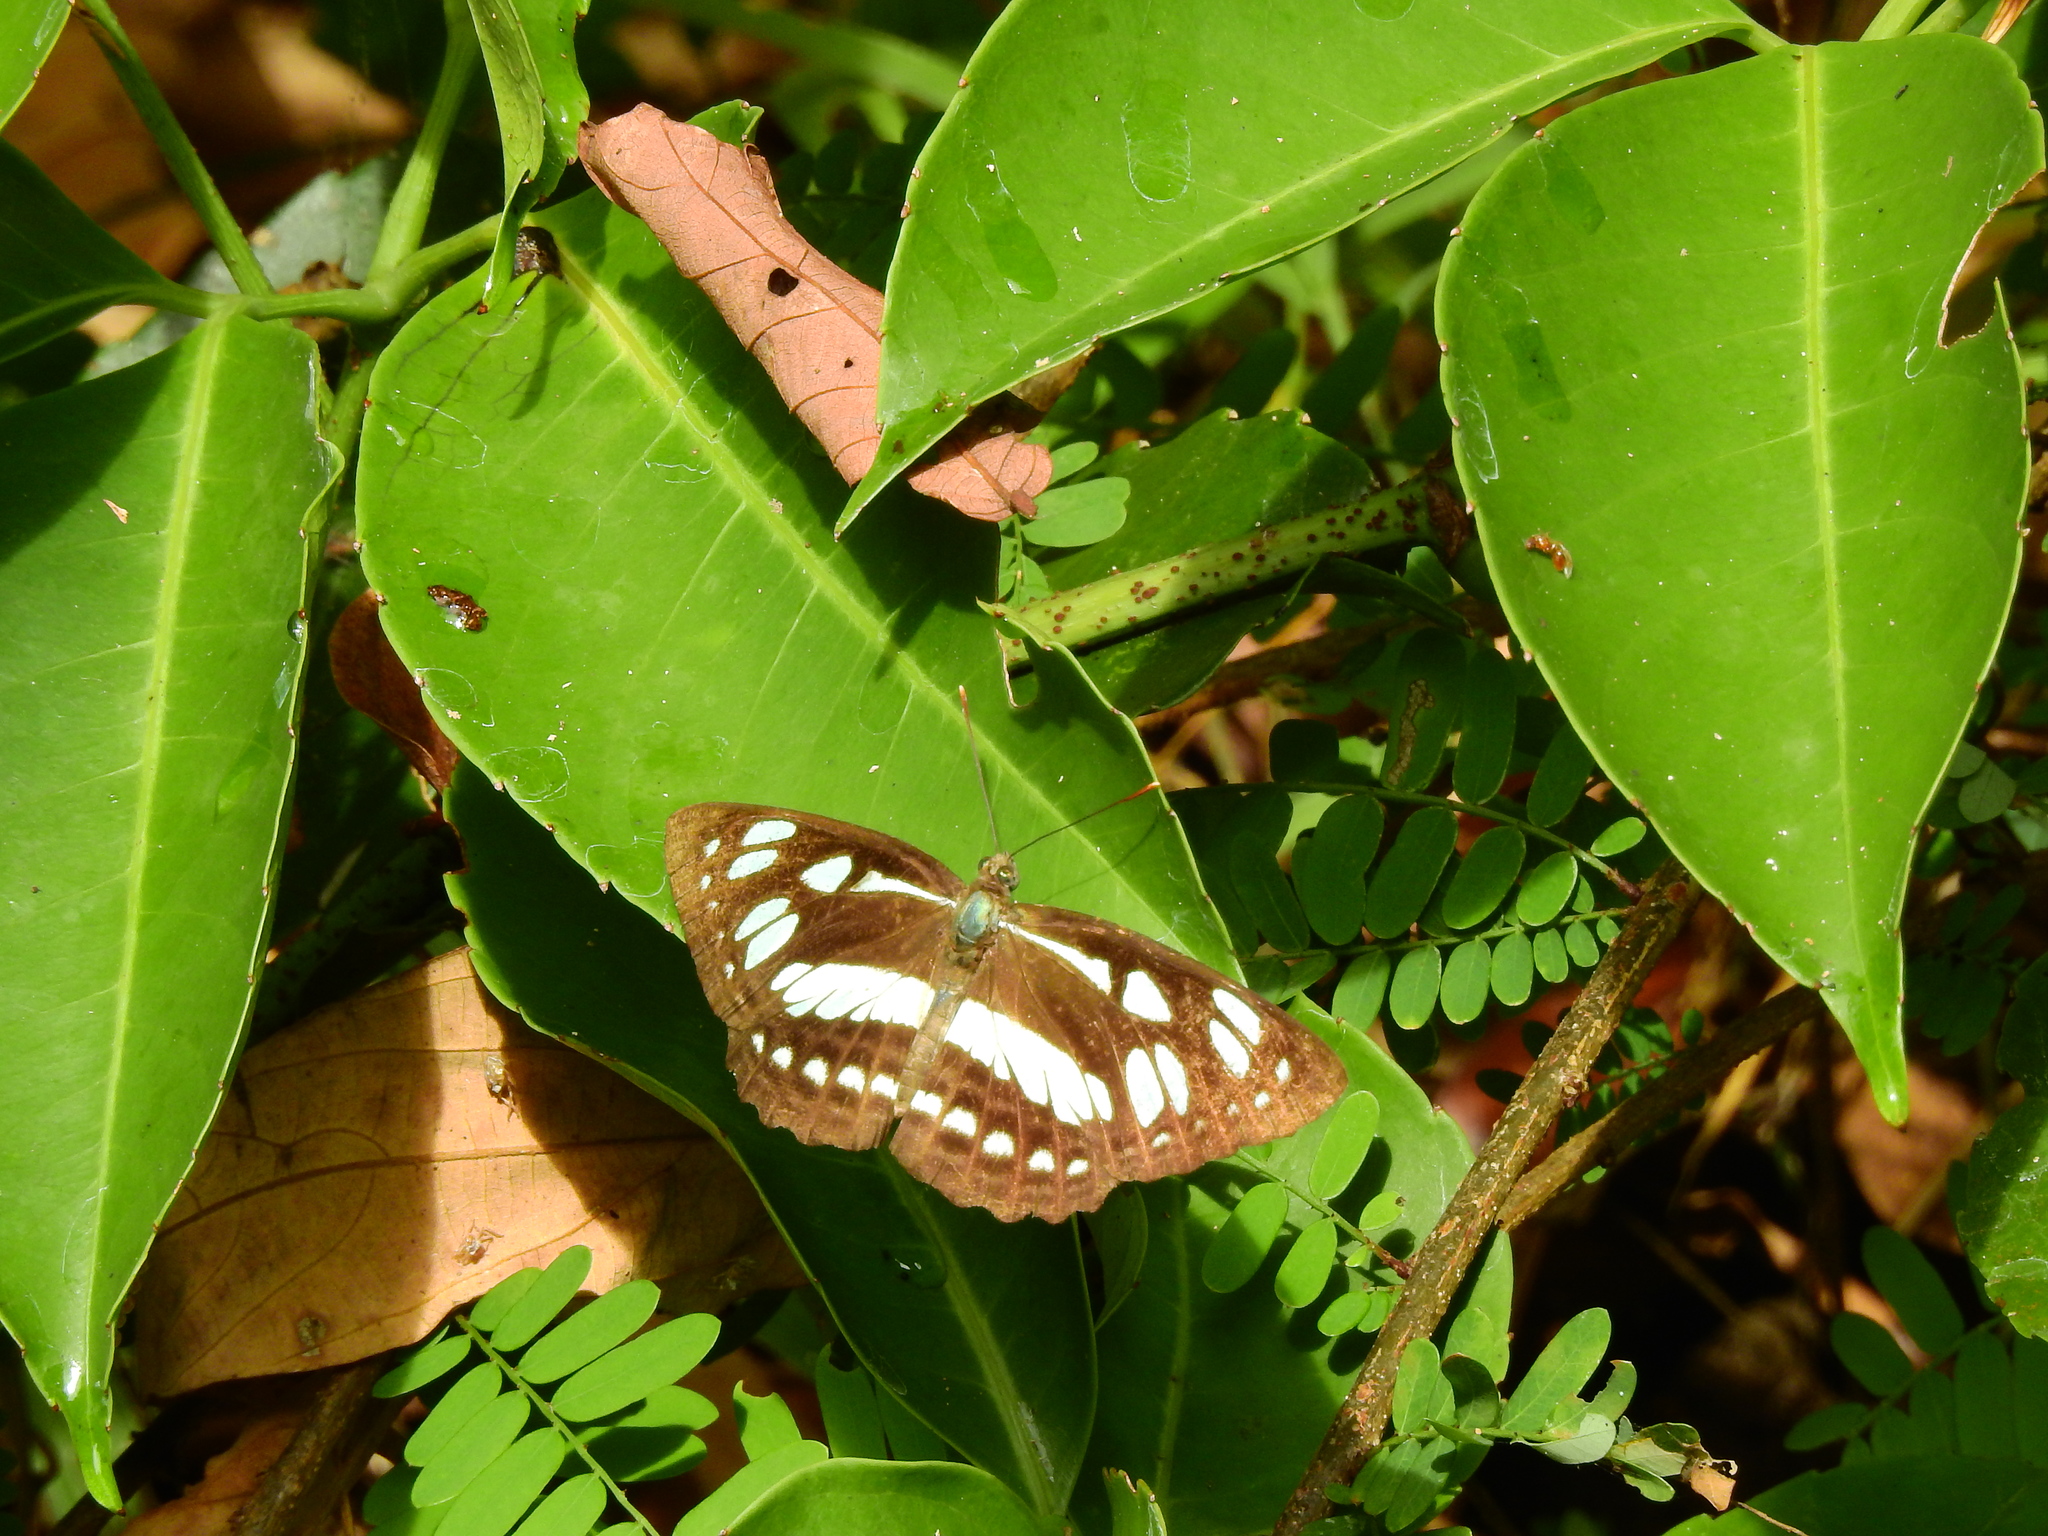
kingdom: Animalia
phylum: Arthropoda
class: Insecta
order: Lepidoptera
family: Nymphalidae
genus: Phaedyma
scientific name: Phaedyma columella
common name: Short banded sailer
